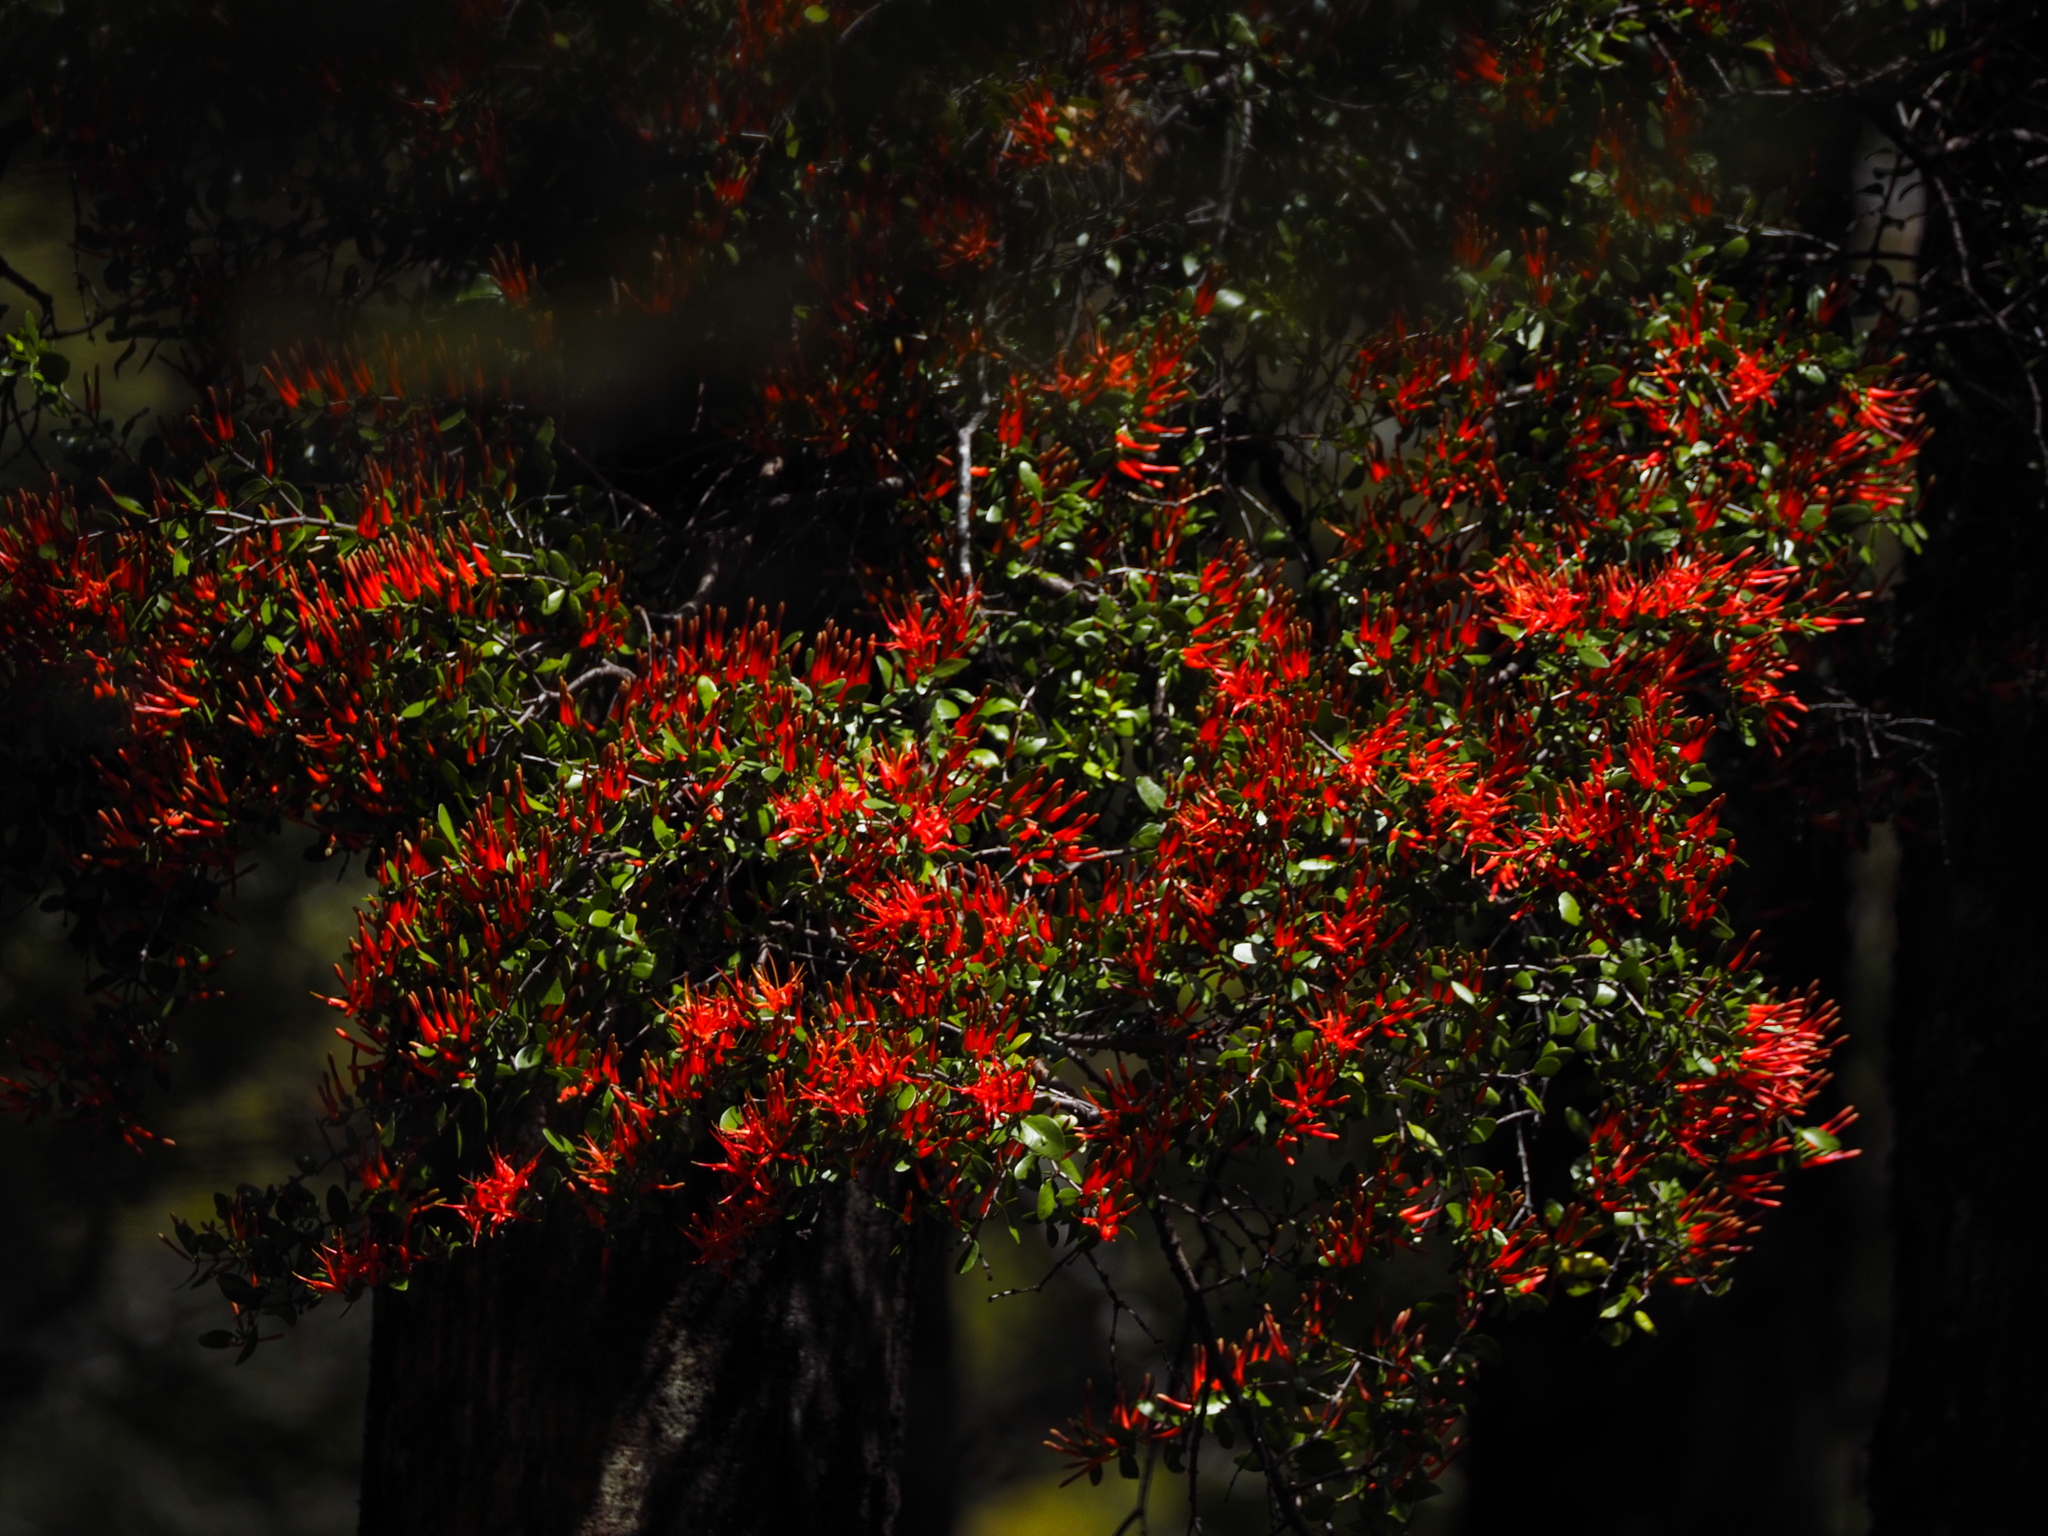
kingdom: Plantae
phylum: Tracheophyta
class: Magnoliopsida
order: Santalales
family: Loranthaceae
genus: Peraxilla
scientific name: Peraxilla tetrapetala
